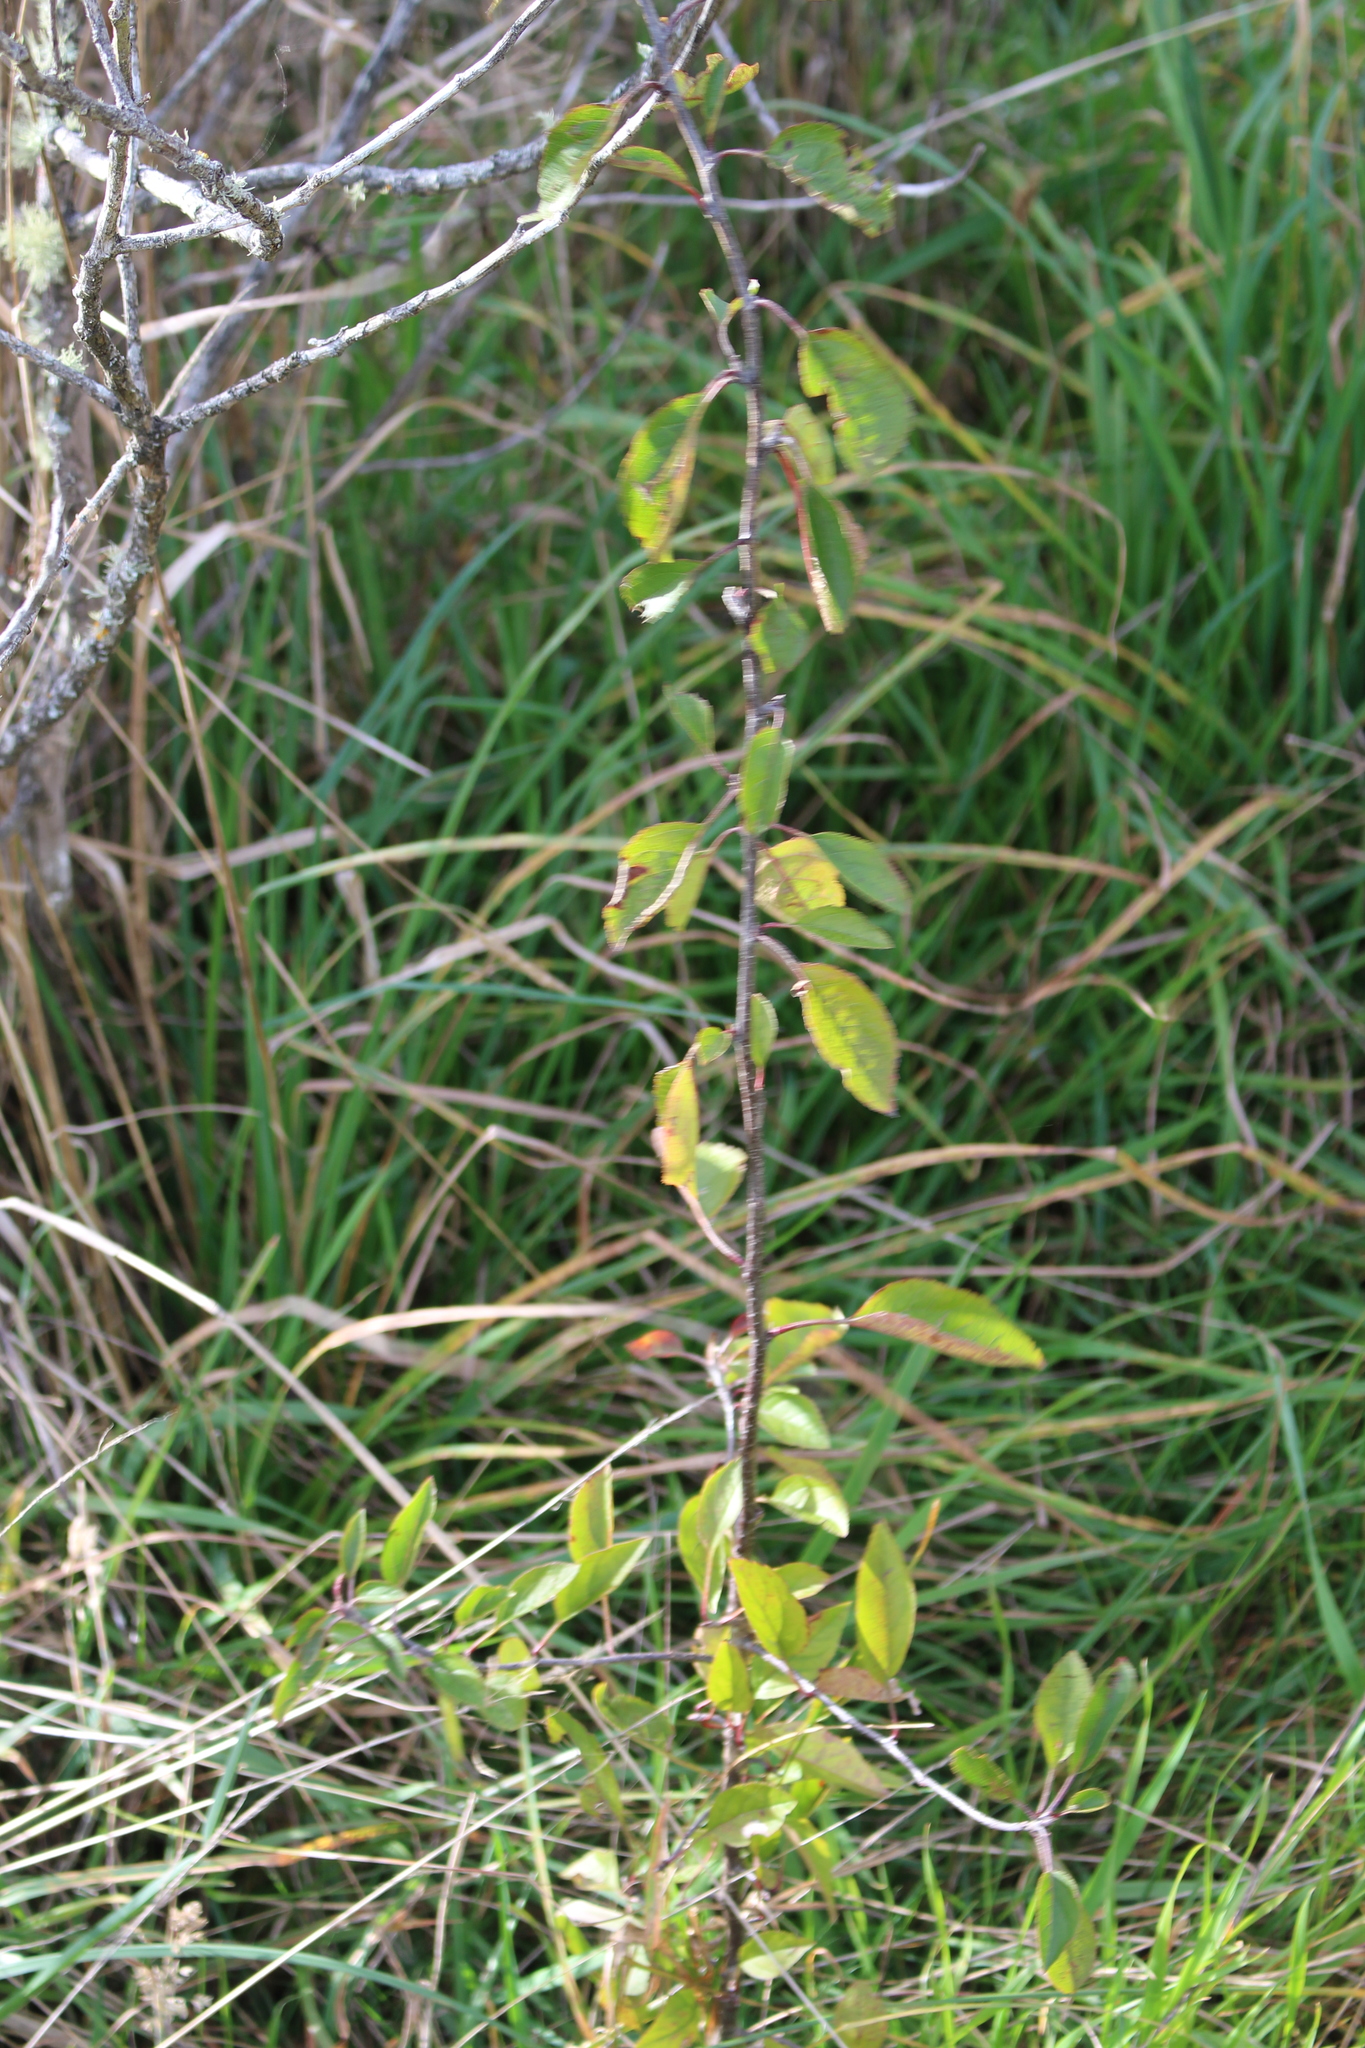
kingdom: Plantae
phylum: Tracheophyta
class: Magnoliopsida
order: Rosales
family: Rosaceae
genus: Malus
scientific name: Malus domestica
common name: Apple
